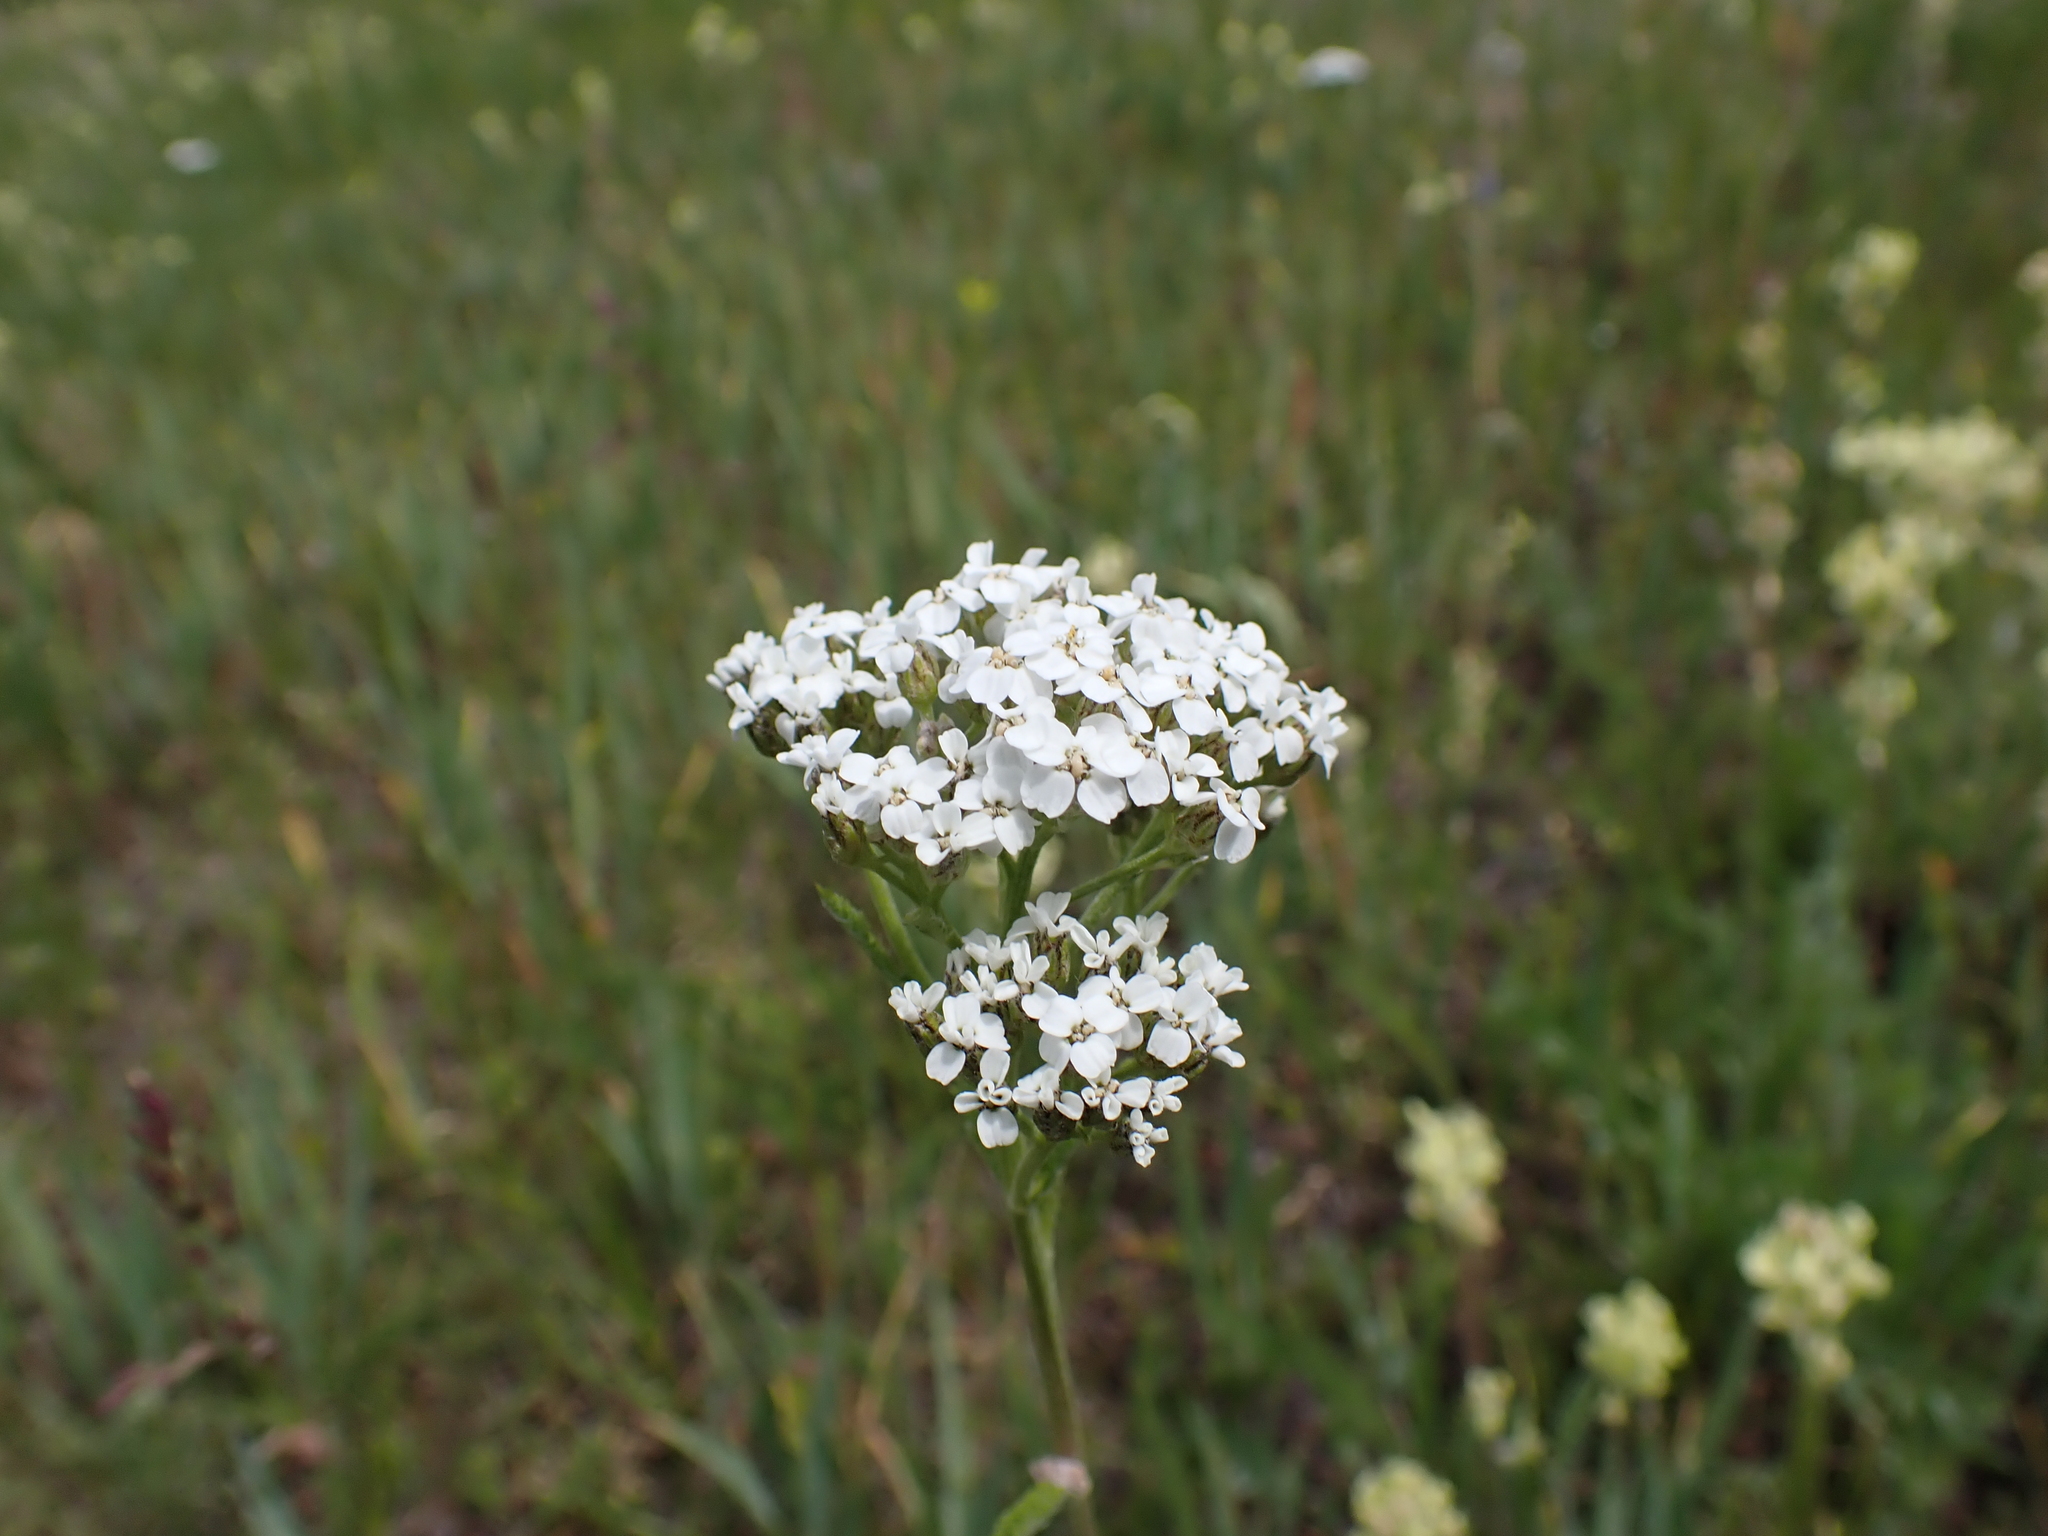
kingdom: Plantae
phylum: Tracheophyta
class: Magnoliopsida
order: Asterales
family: Asteraceae
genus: Achillea
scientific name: Achillea millefolium
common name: Yarrow
